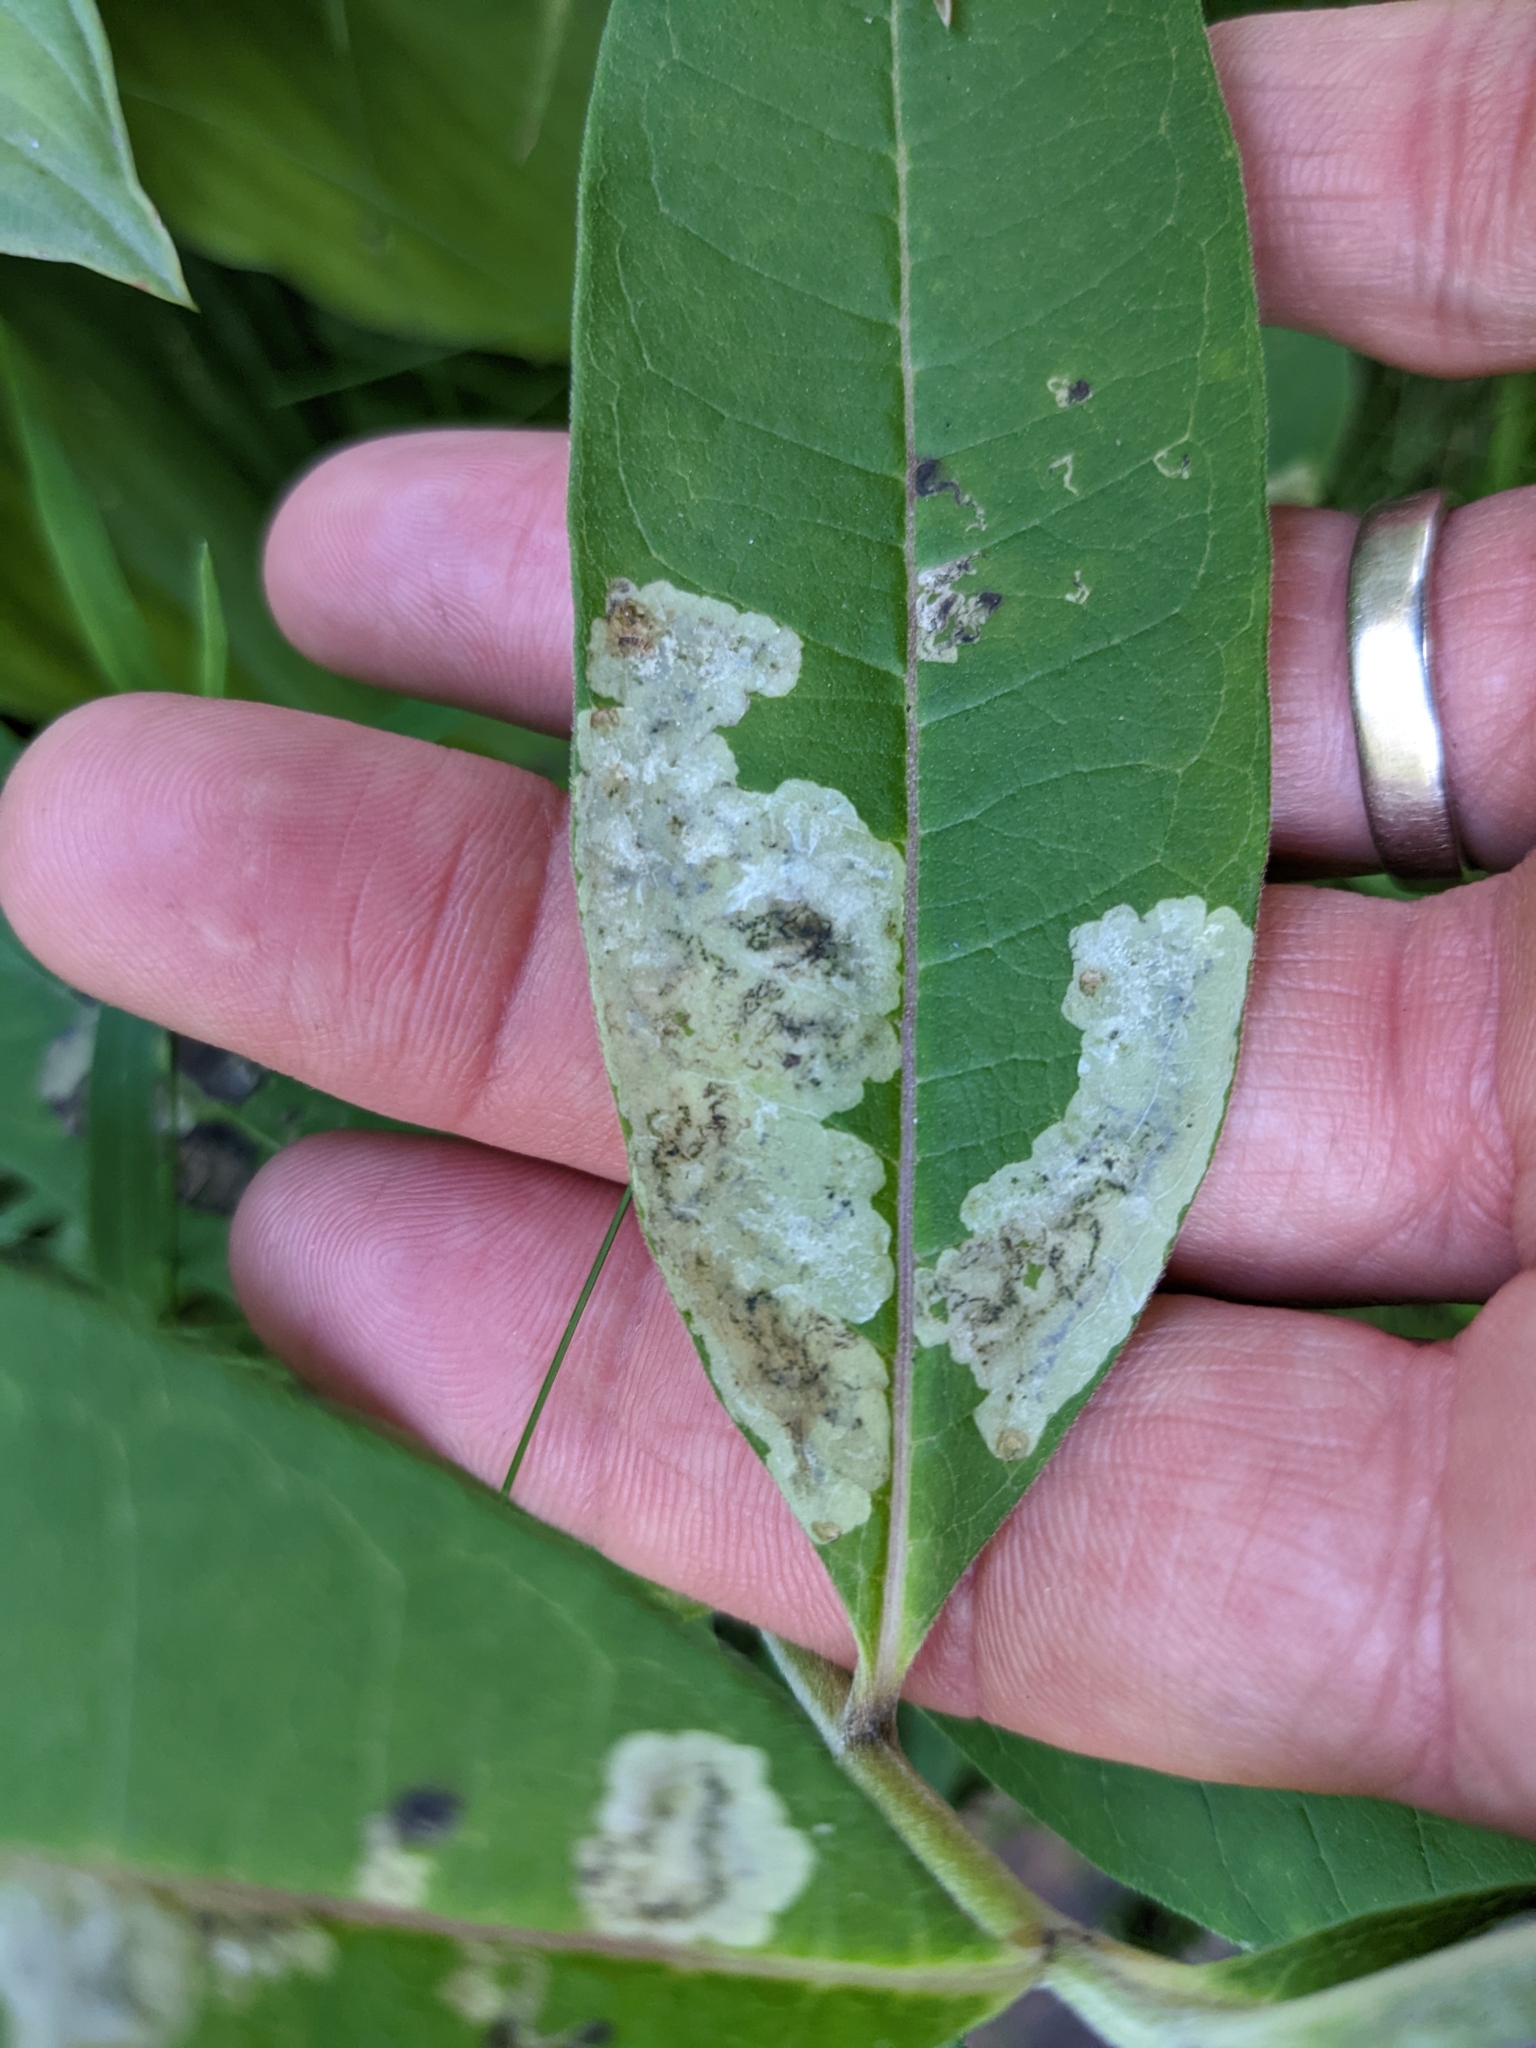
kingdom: Animalia
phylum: Arthropoda
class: Insecta
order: Diptera
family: Agromyzidae
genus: Liriomyza
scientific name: Liriomyza asclepiadis
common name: Milkweed leaf-miner fly
